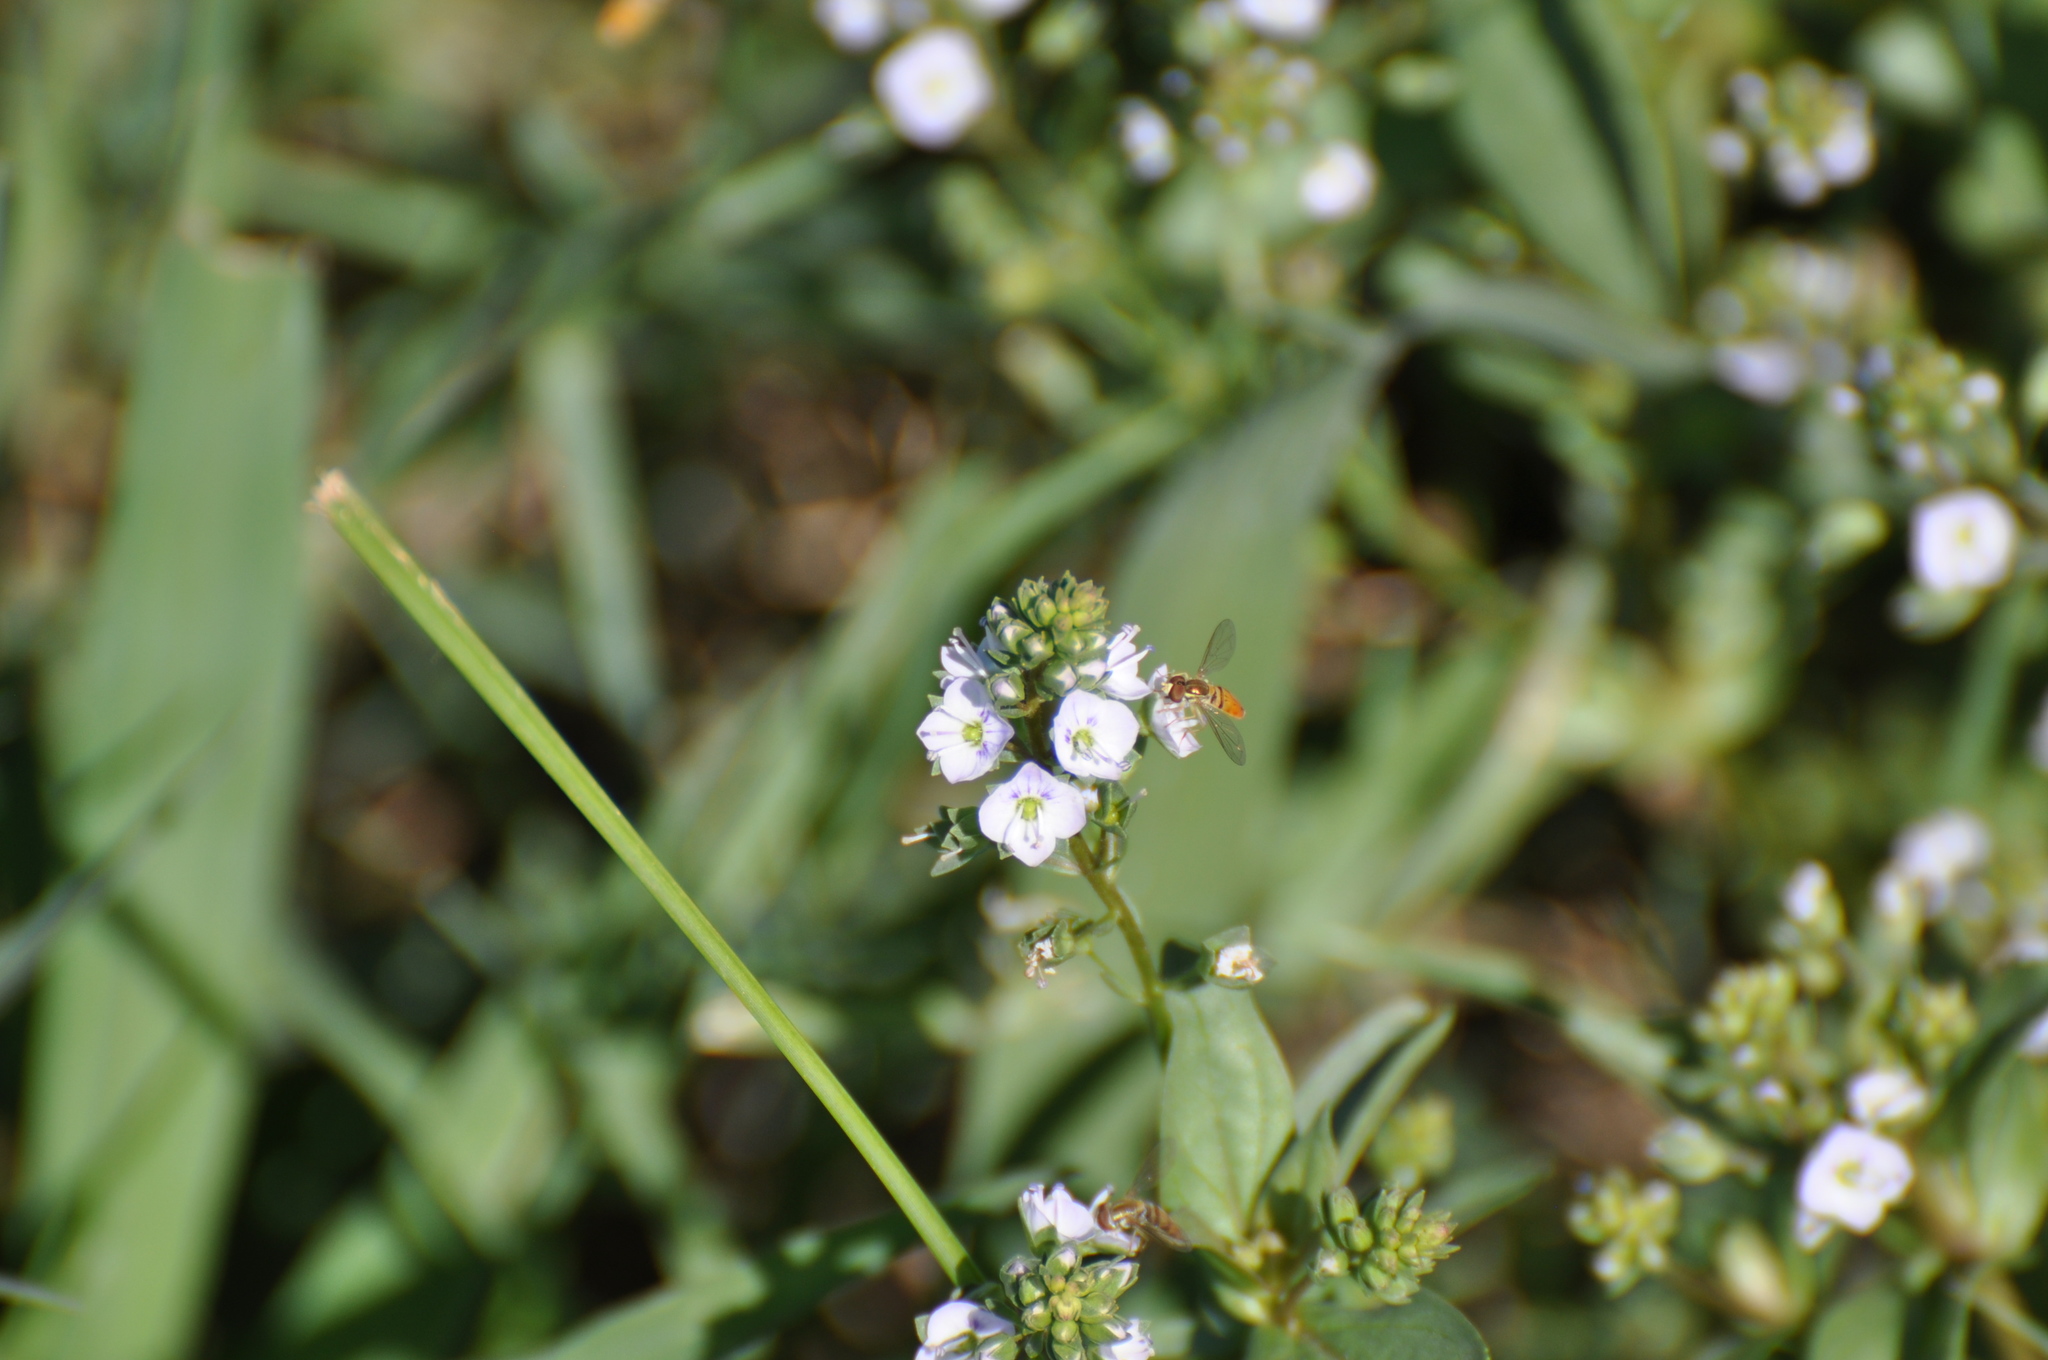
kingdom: Plantae
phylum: Tracheophyta
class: Magnoliopsida
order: Lamiales
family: Plantaginaceae
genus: Veronica
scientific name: Veronica anagallis-aquatica
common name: Water speedwell
